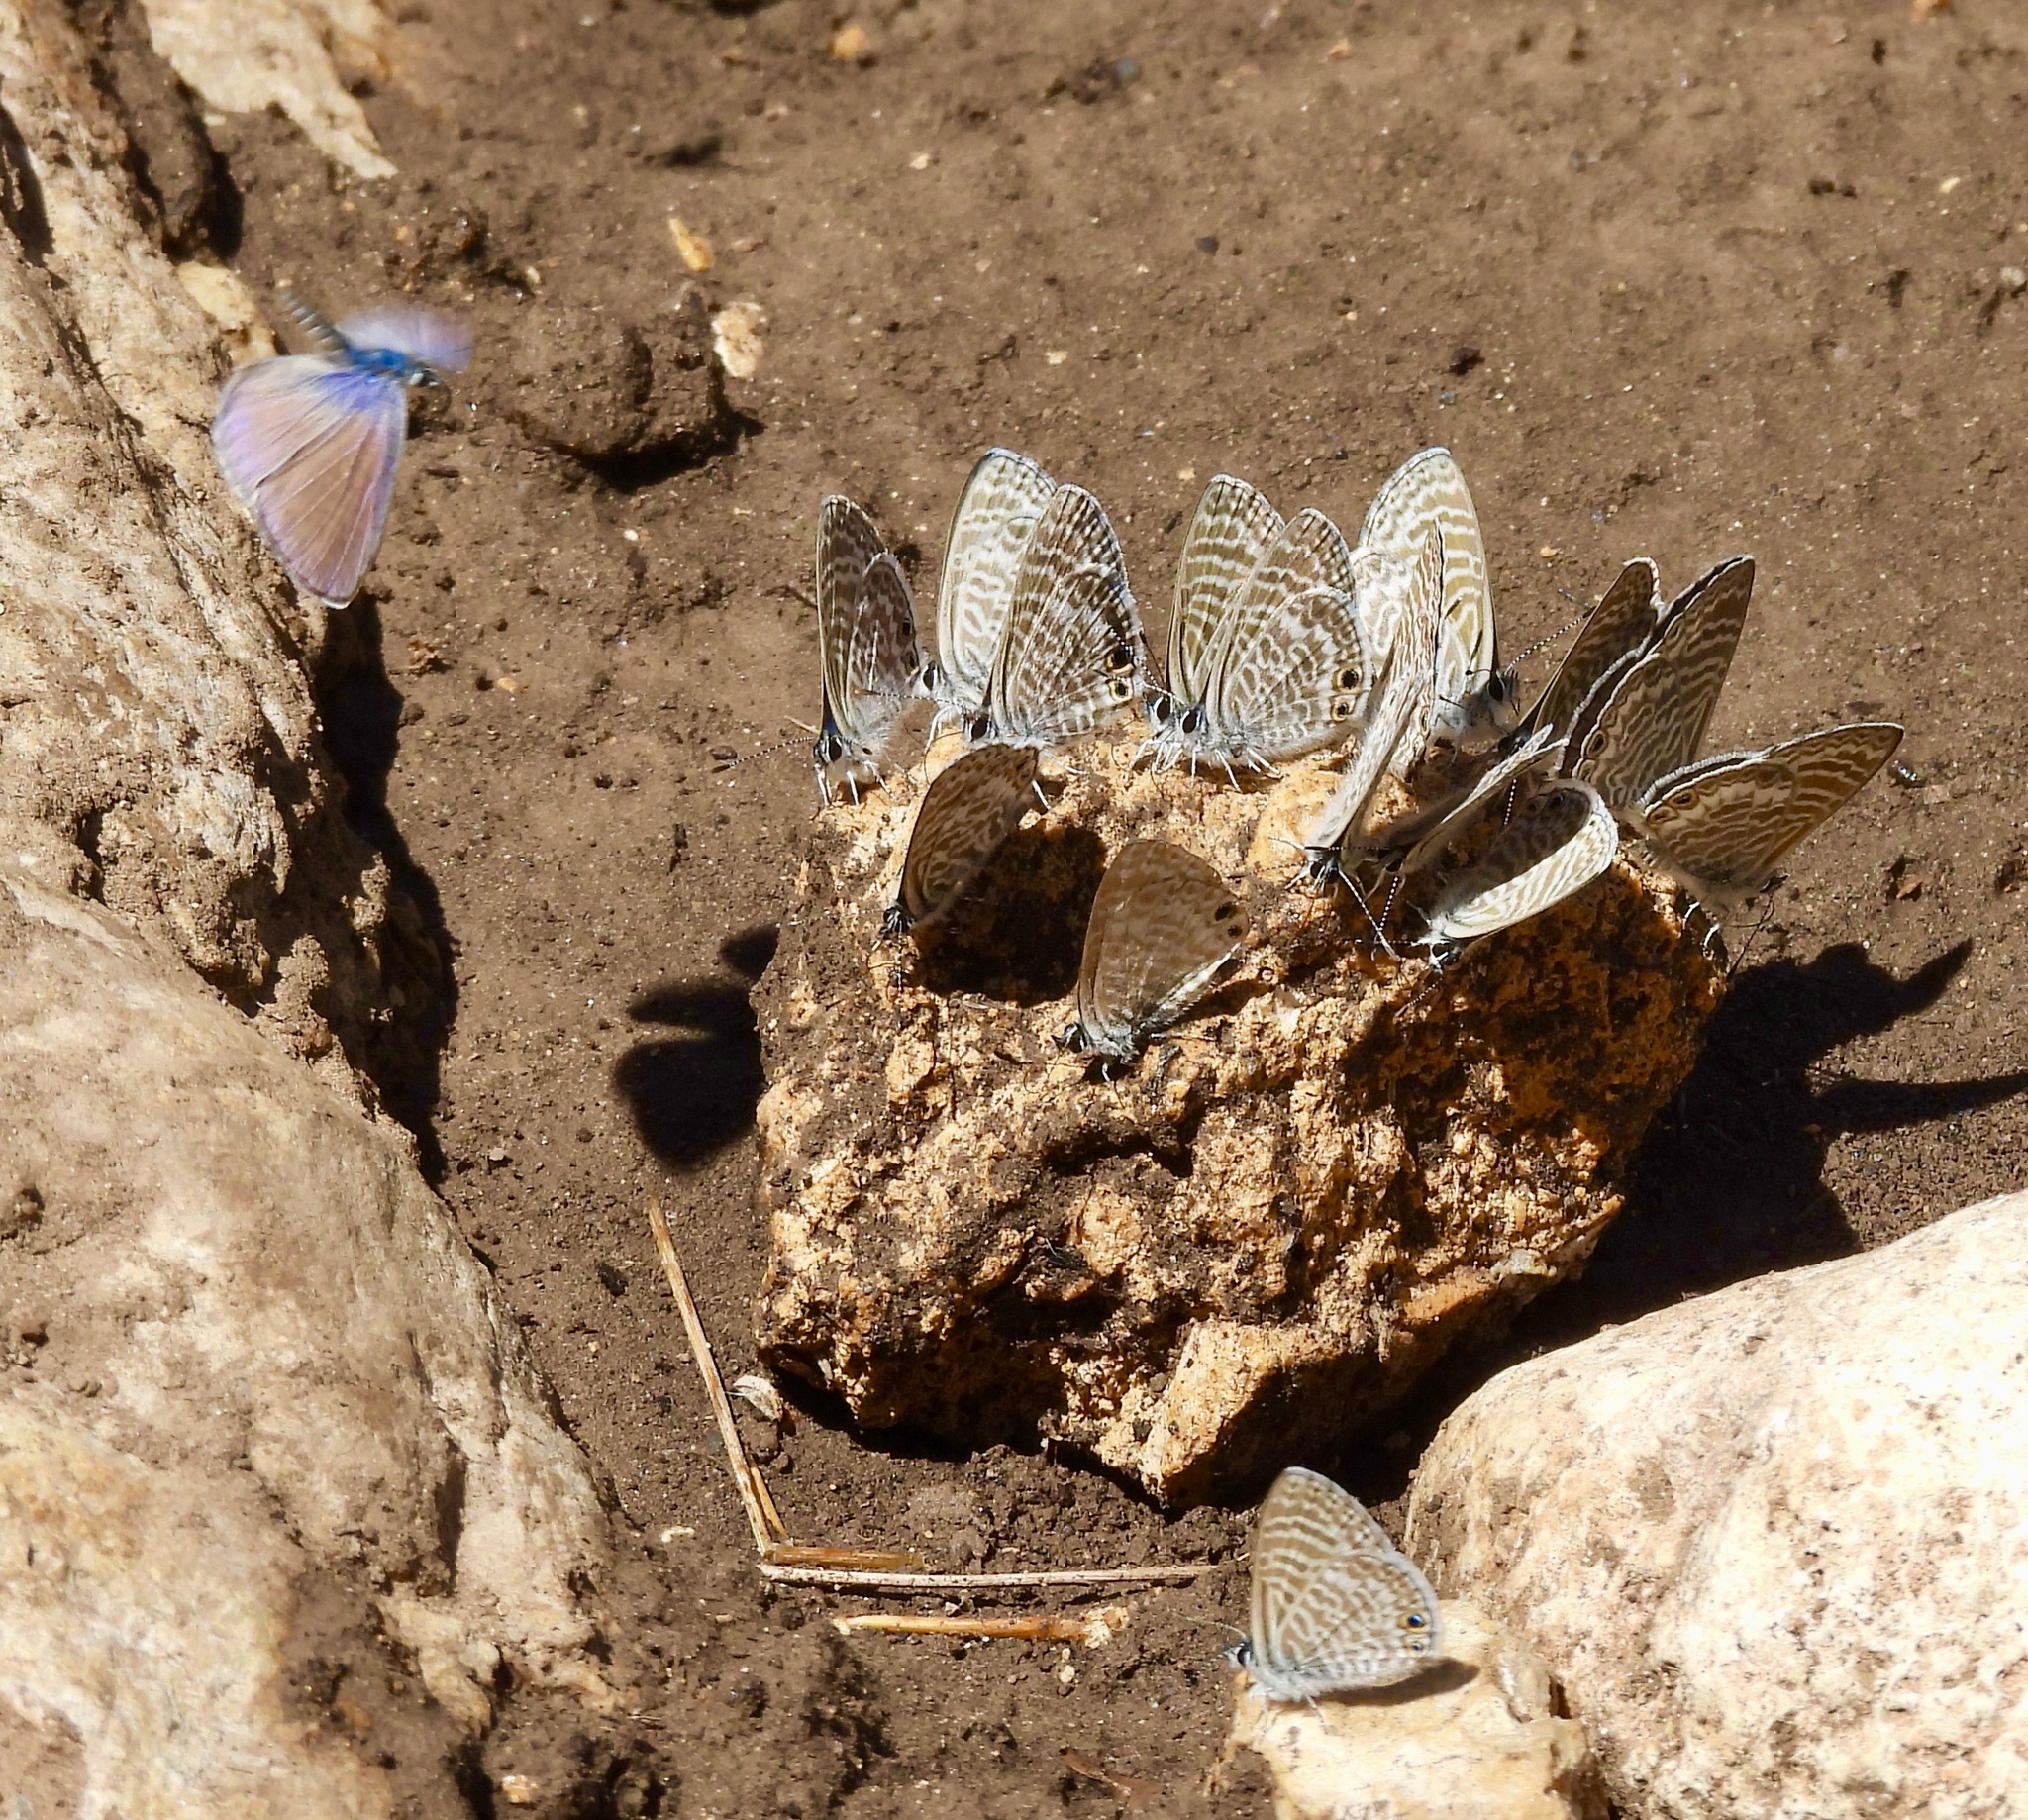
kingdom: Animalia
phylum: Arthropoda
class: Insecta
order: Lepidoptera
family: Lycaenidae
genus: Leptotes
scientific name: Leptotes marina
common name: Marine blue
